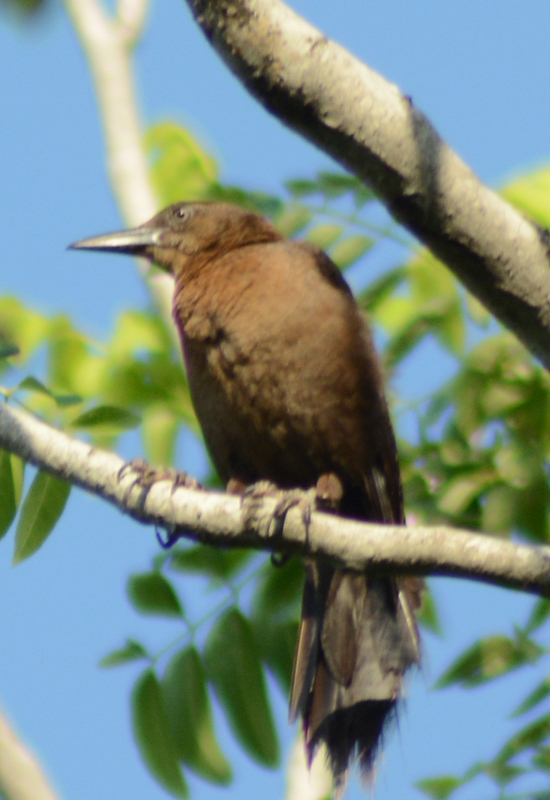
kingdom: Animalia
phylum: Chordata
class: Aves
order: Passeriformes
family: Icteridae
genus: Quiscalus
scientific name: Quiscalus mexicanus
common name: Great-tailed grackle
